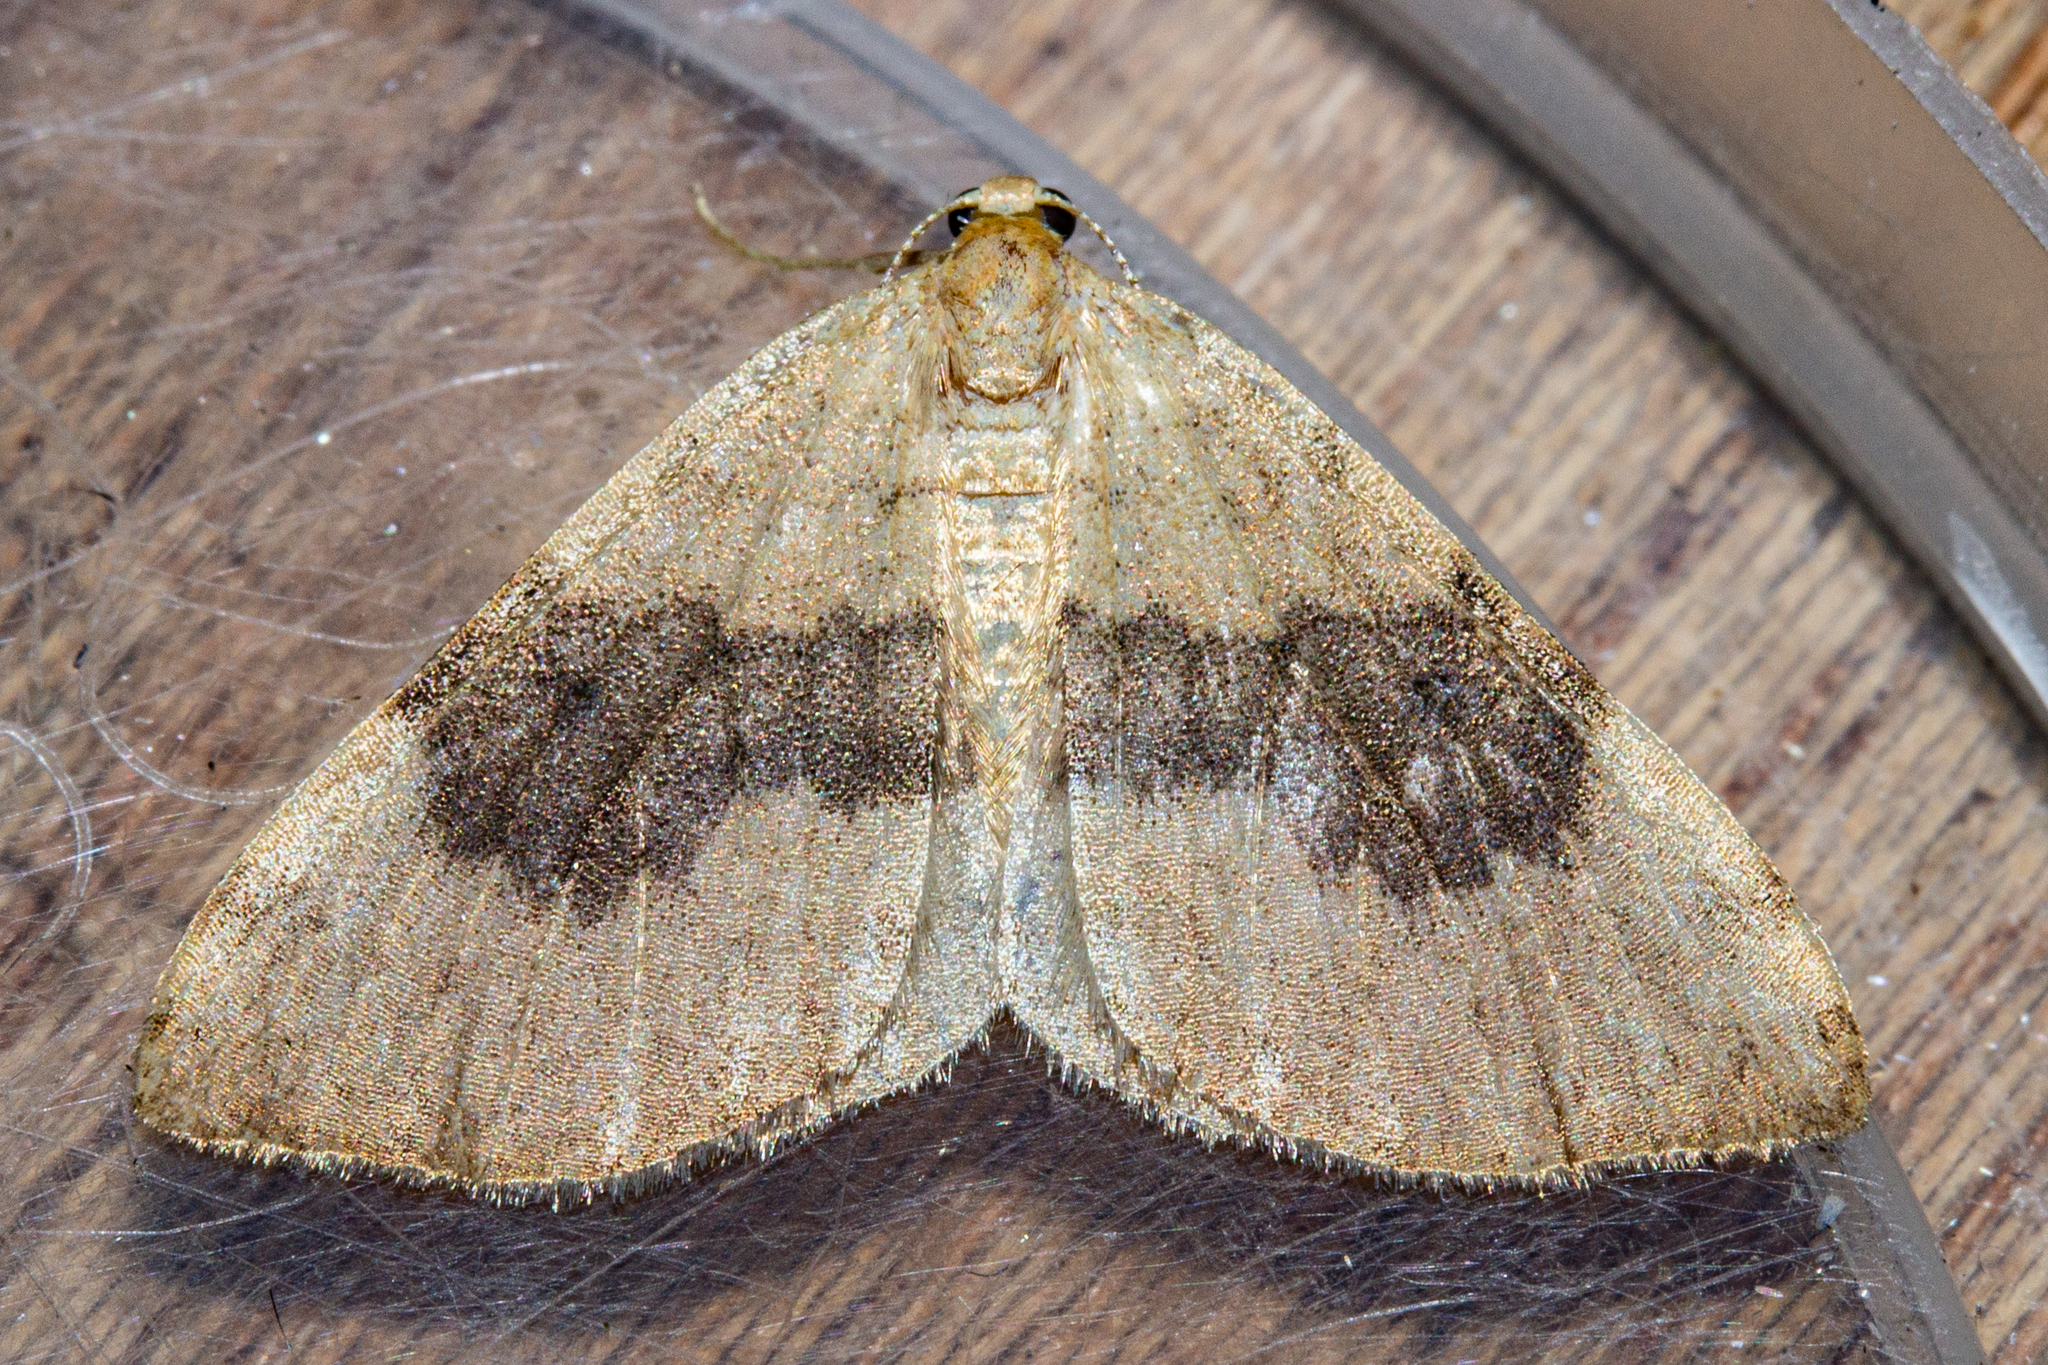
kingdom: Animalia
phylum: Arthropoda
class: Insecta
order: Lepidoptera
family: Geometridae
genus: Epiphryne
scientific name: Epiphryne undosata
